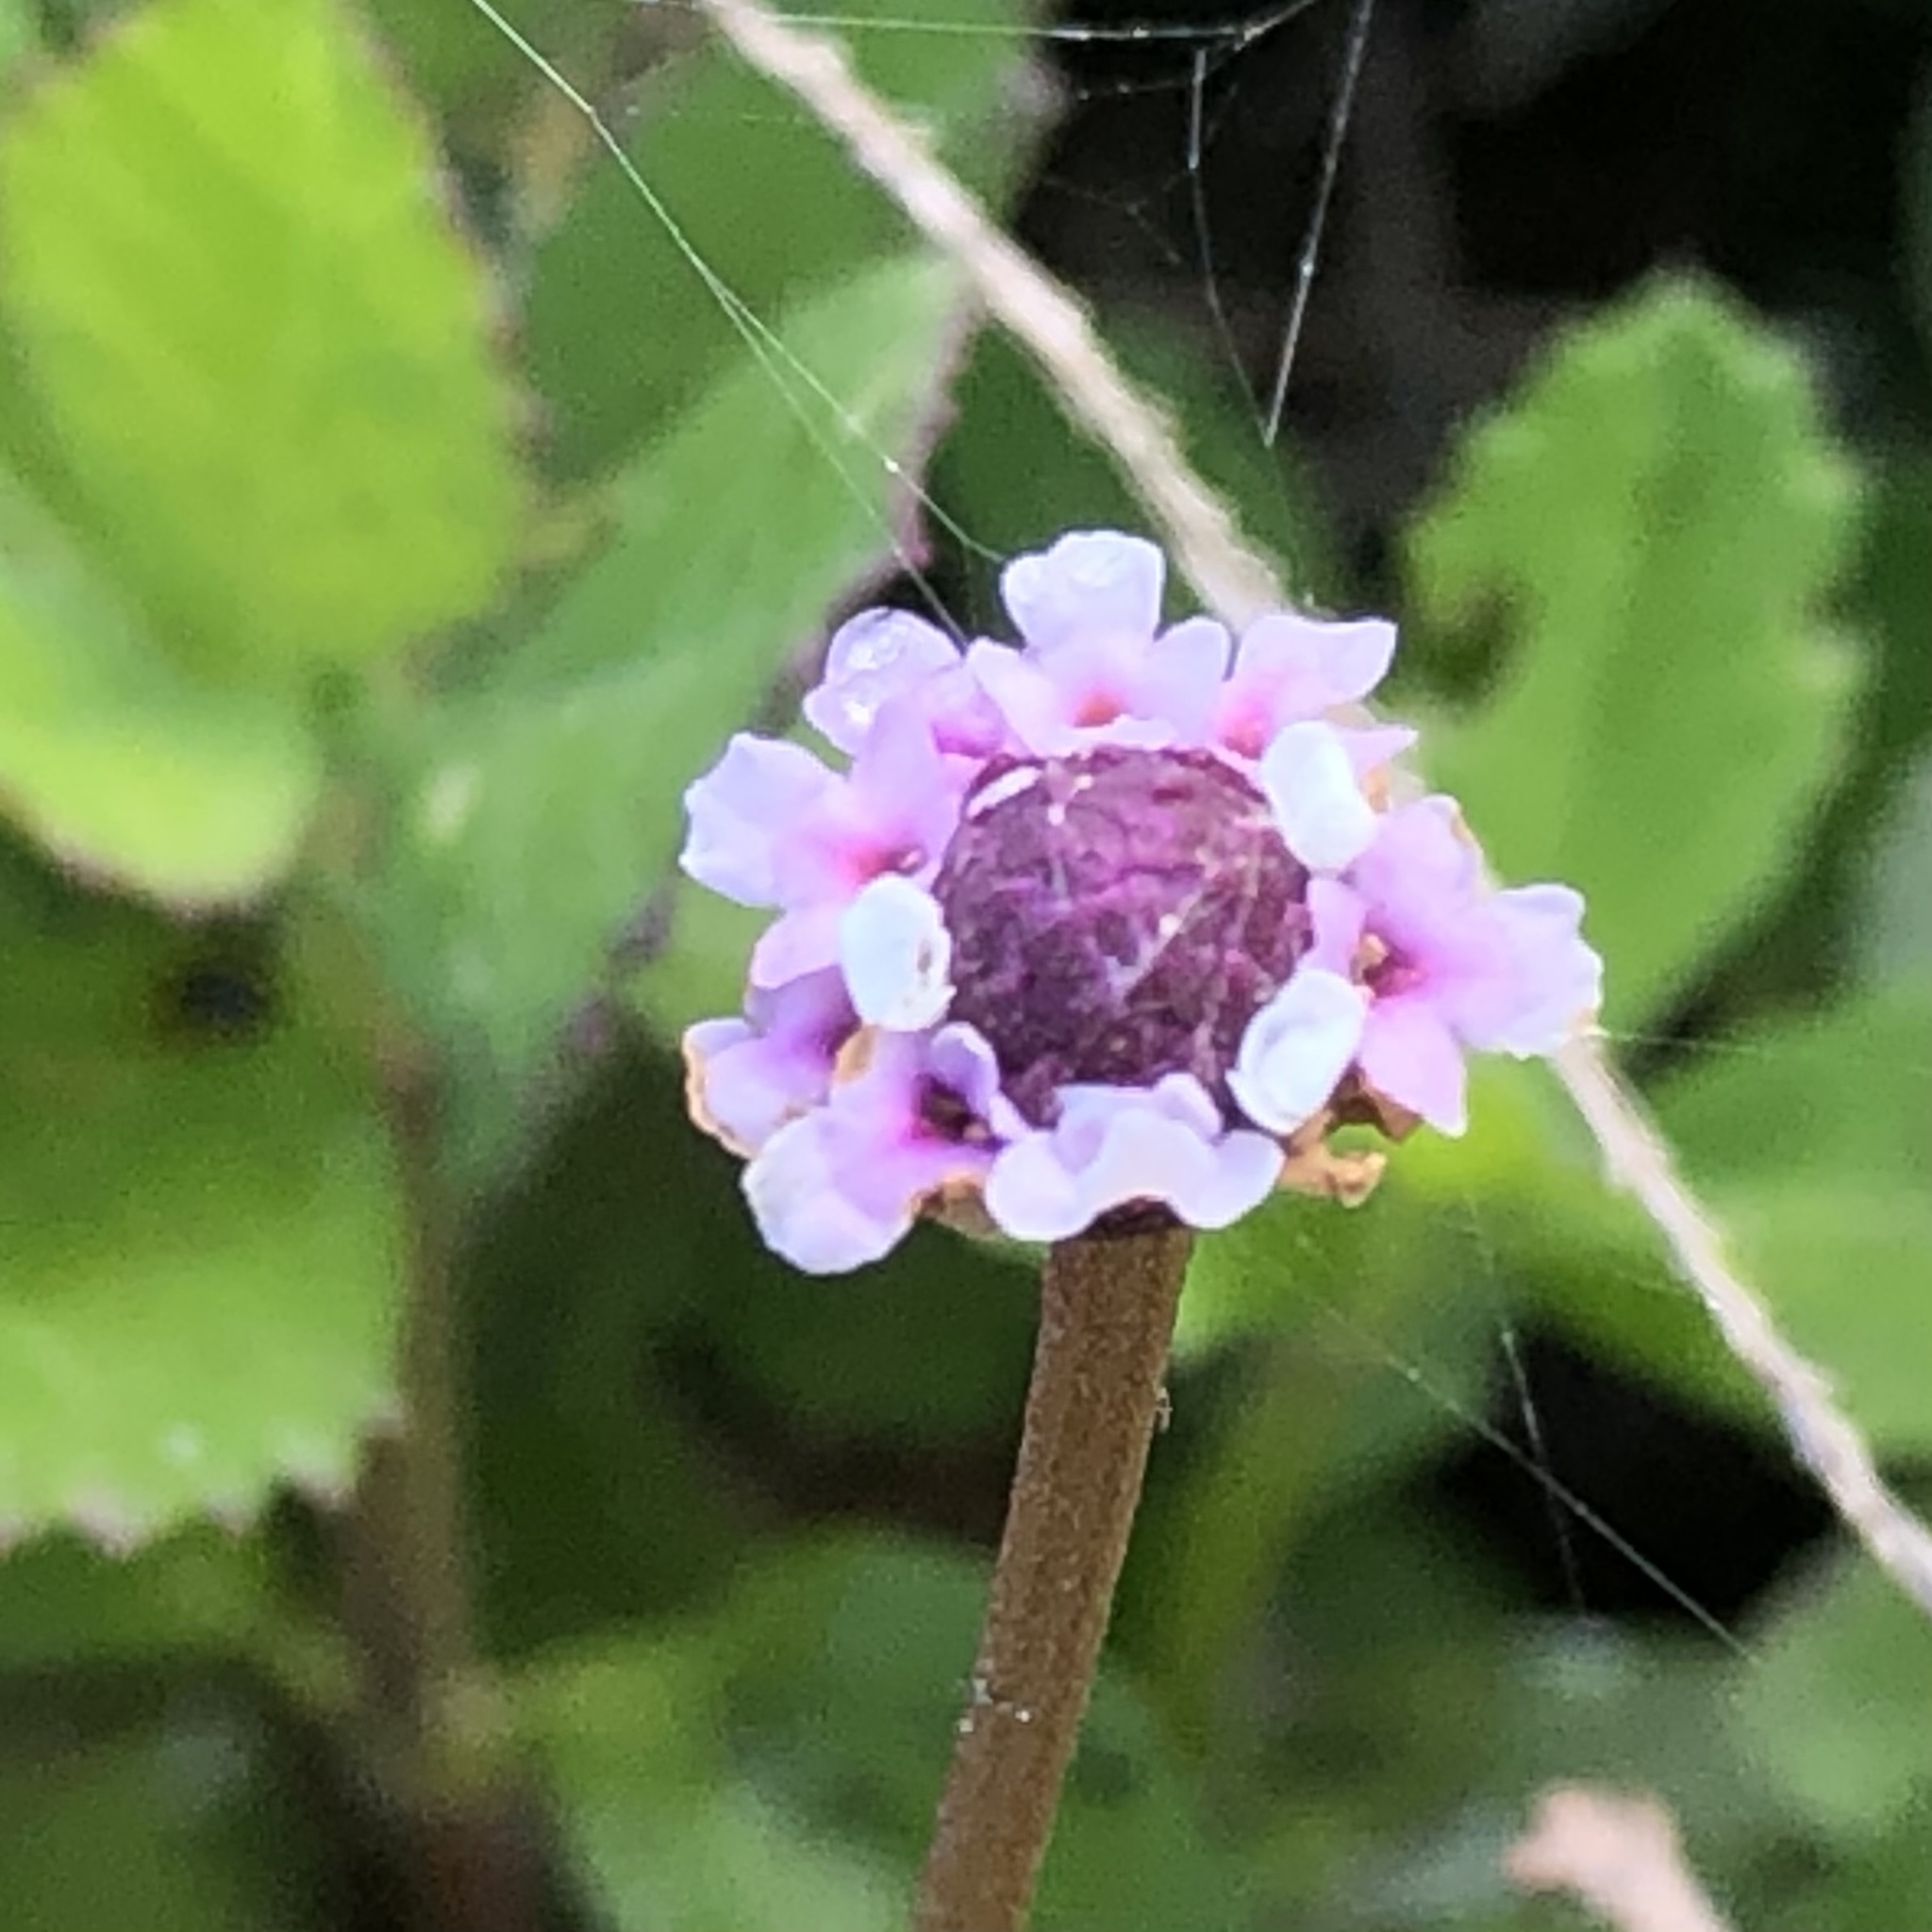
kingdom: Plantae
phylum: Tracheophyta
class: Magnoliopsida
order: Lamiales
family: Verbenaceae
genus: Phyla
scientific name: Phyla nodiflora
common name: Frogfruit
